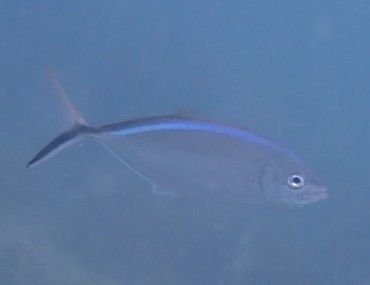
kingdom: Animalia
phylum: Chordata
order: Perciformes
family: Carangidae
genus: Caranx
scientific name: Caranx ruber
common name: Bar jack
